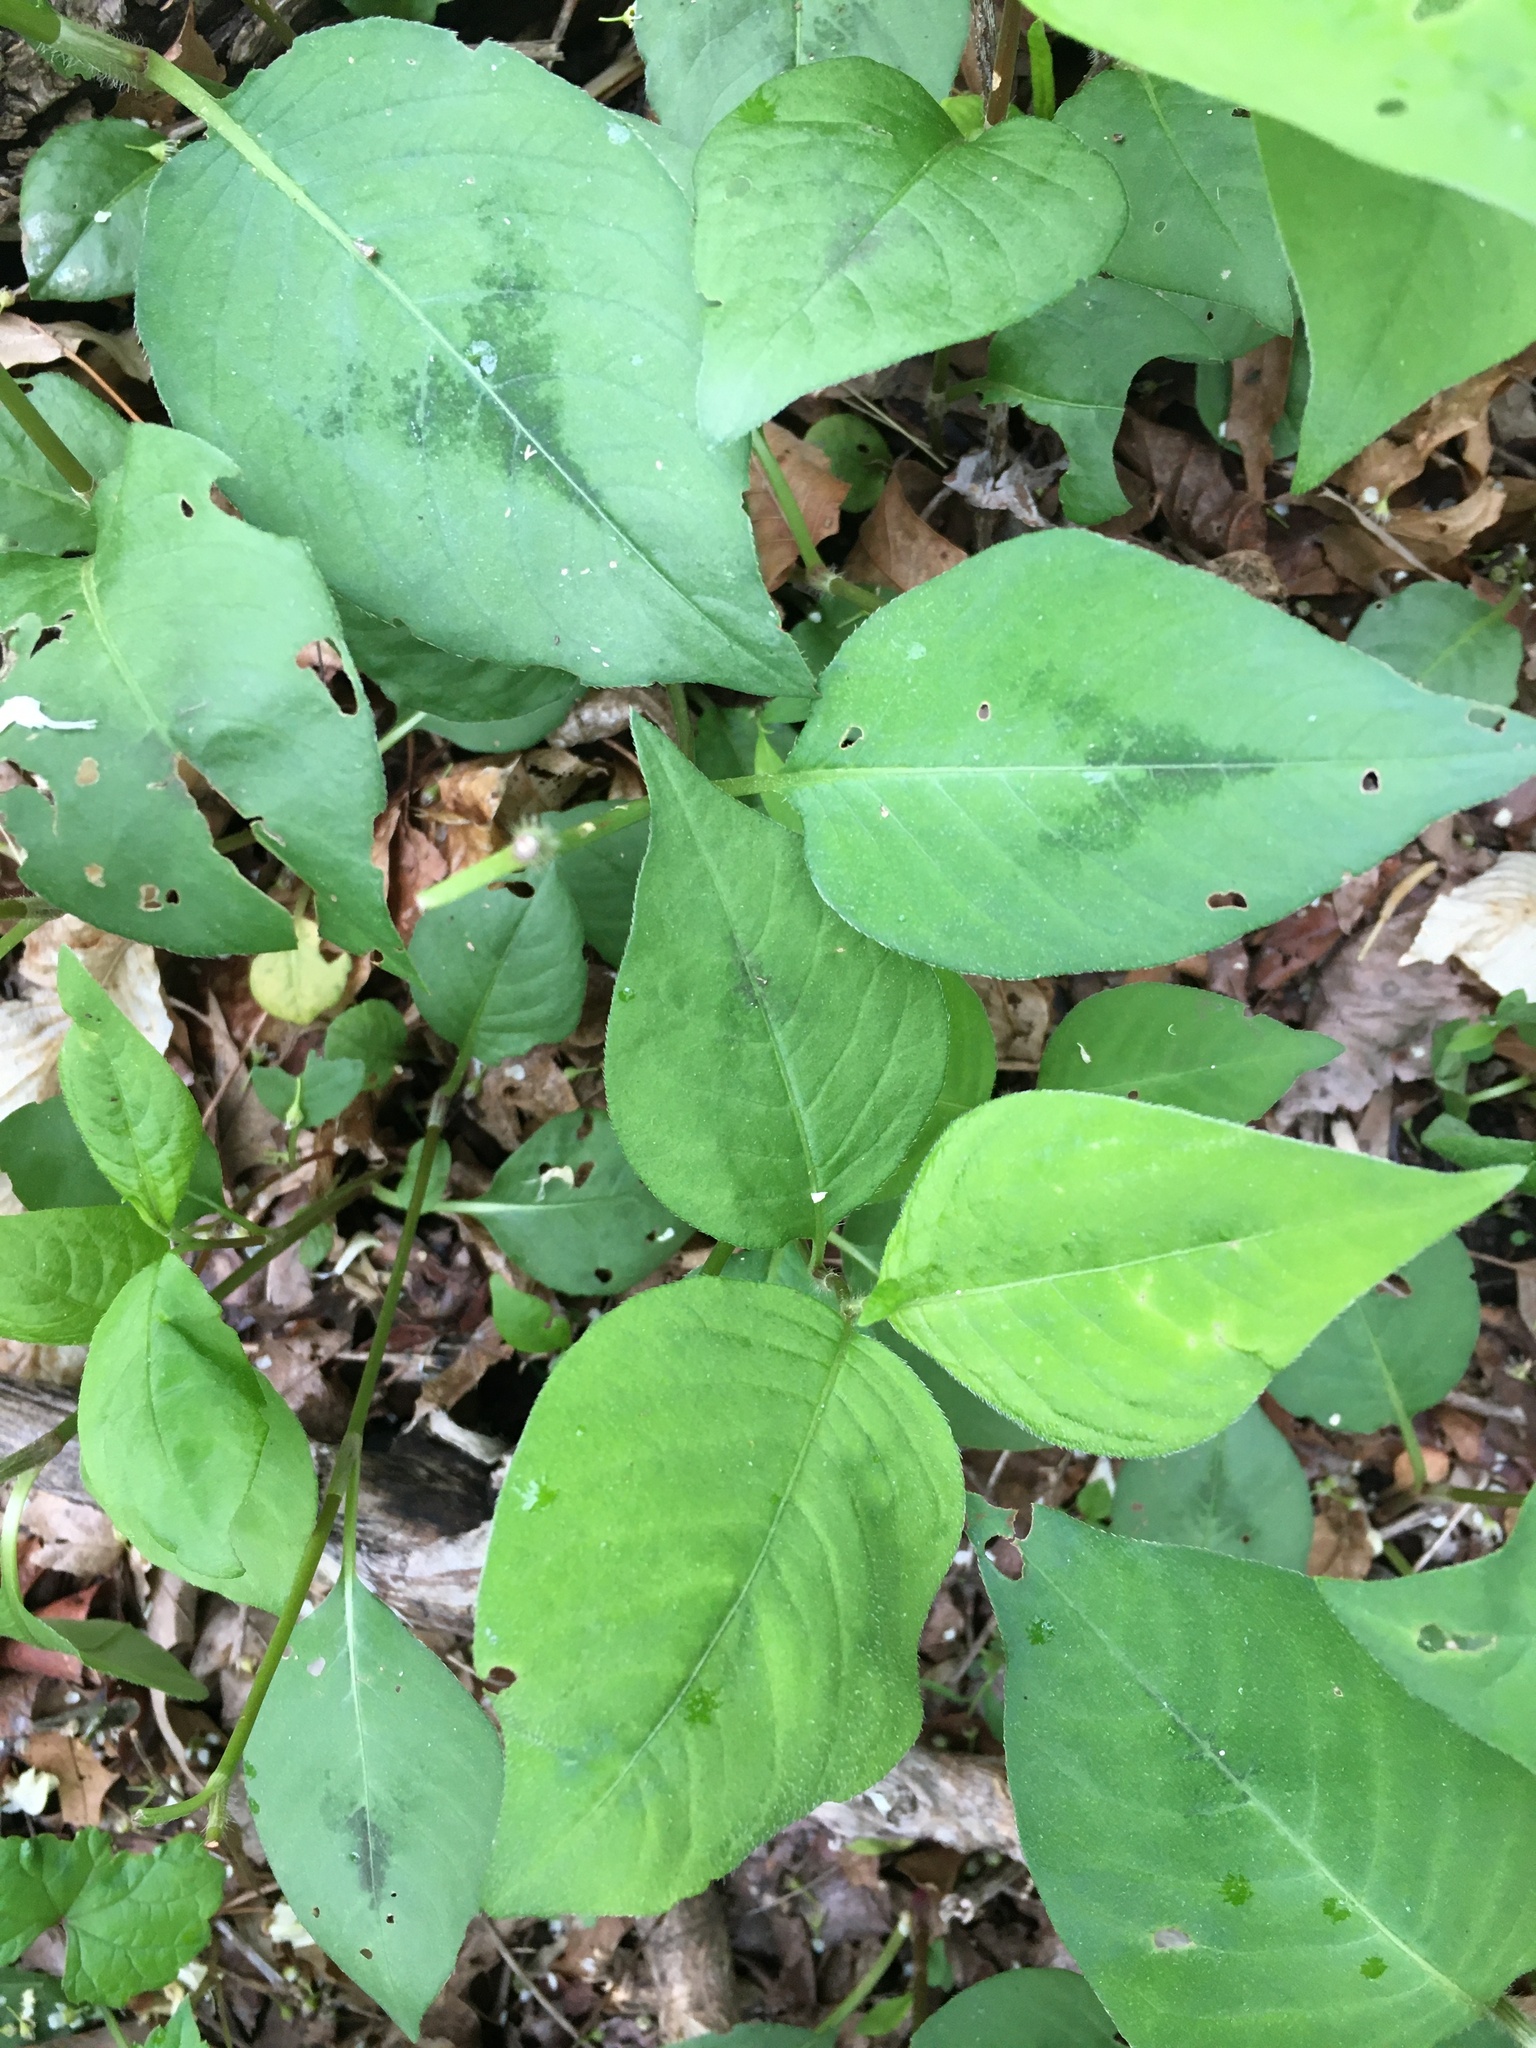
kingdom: Plantae
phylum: Tracheophyta
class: Magnoliopsida
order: Caryophyllales
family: Polygonaceae
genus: Persicaria
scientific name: Persicaria virginiana
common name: Jumpseed
